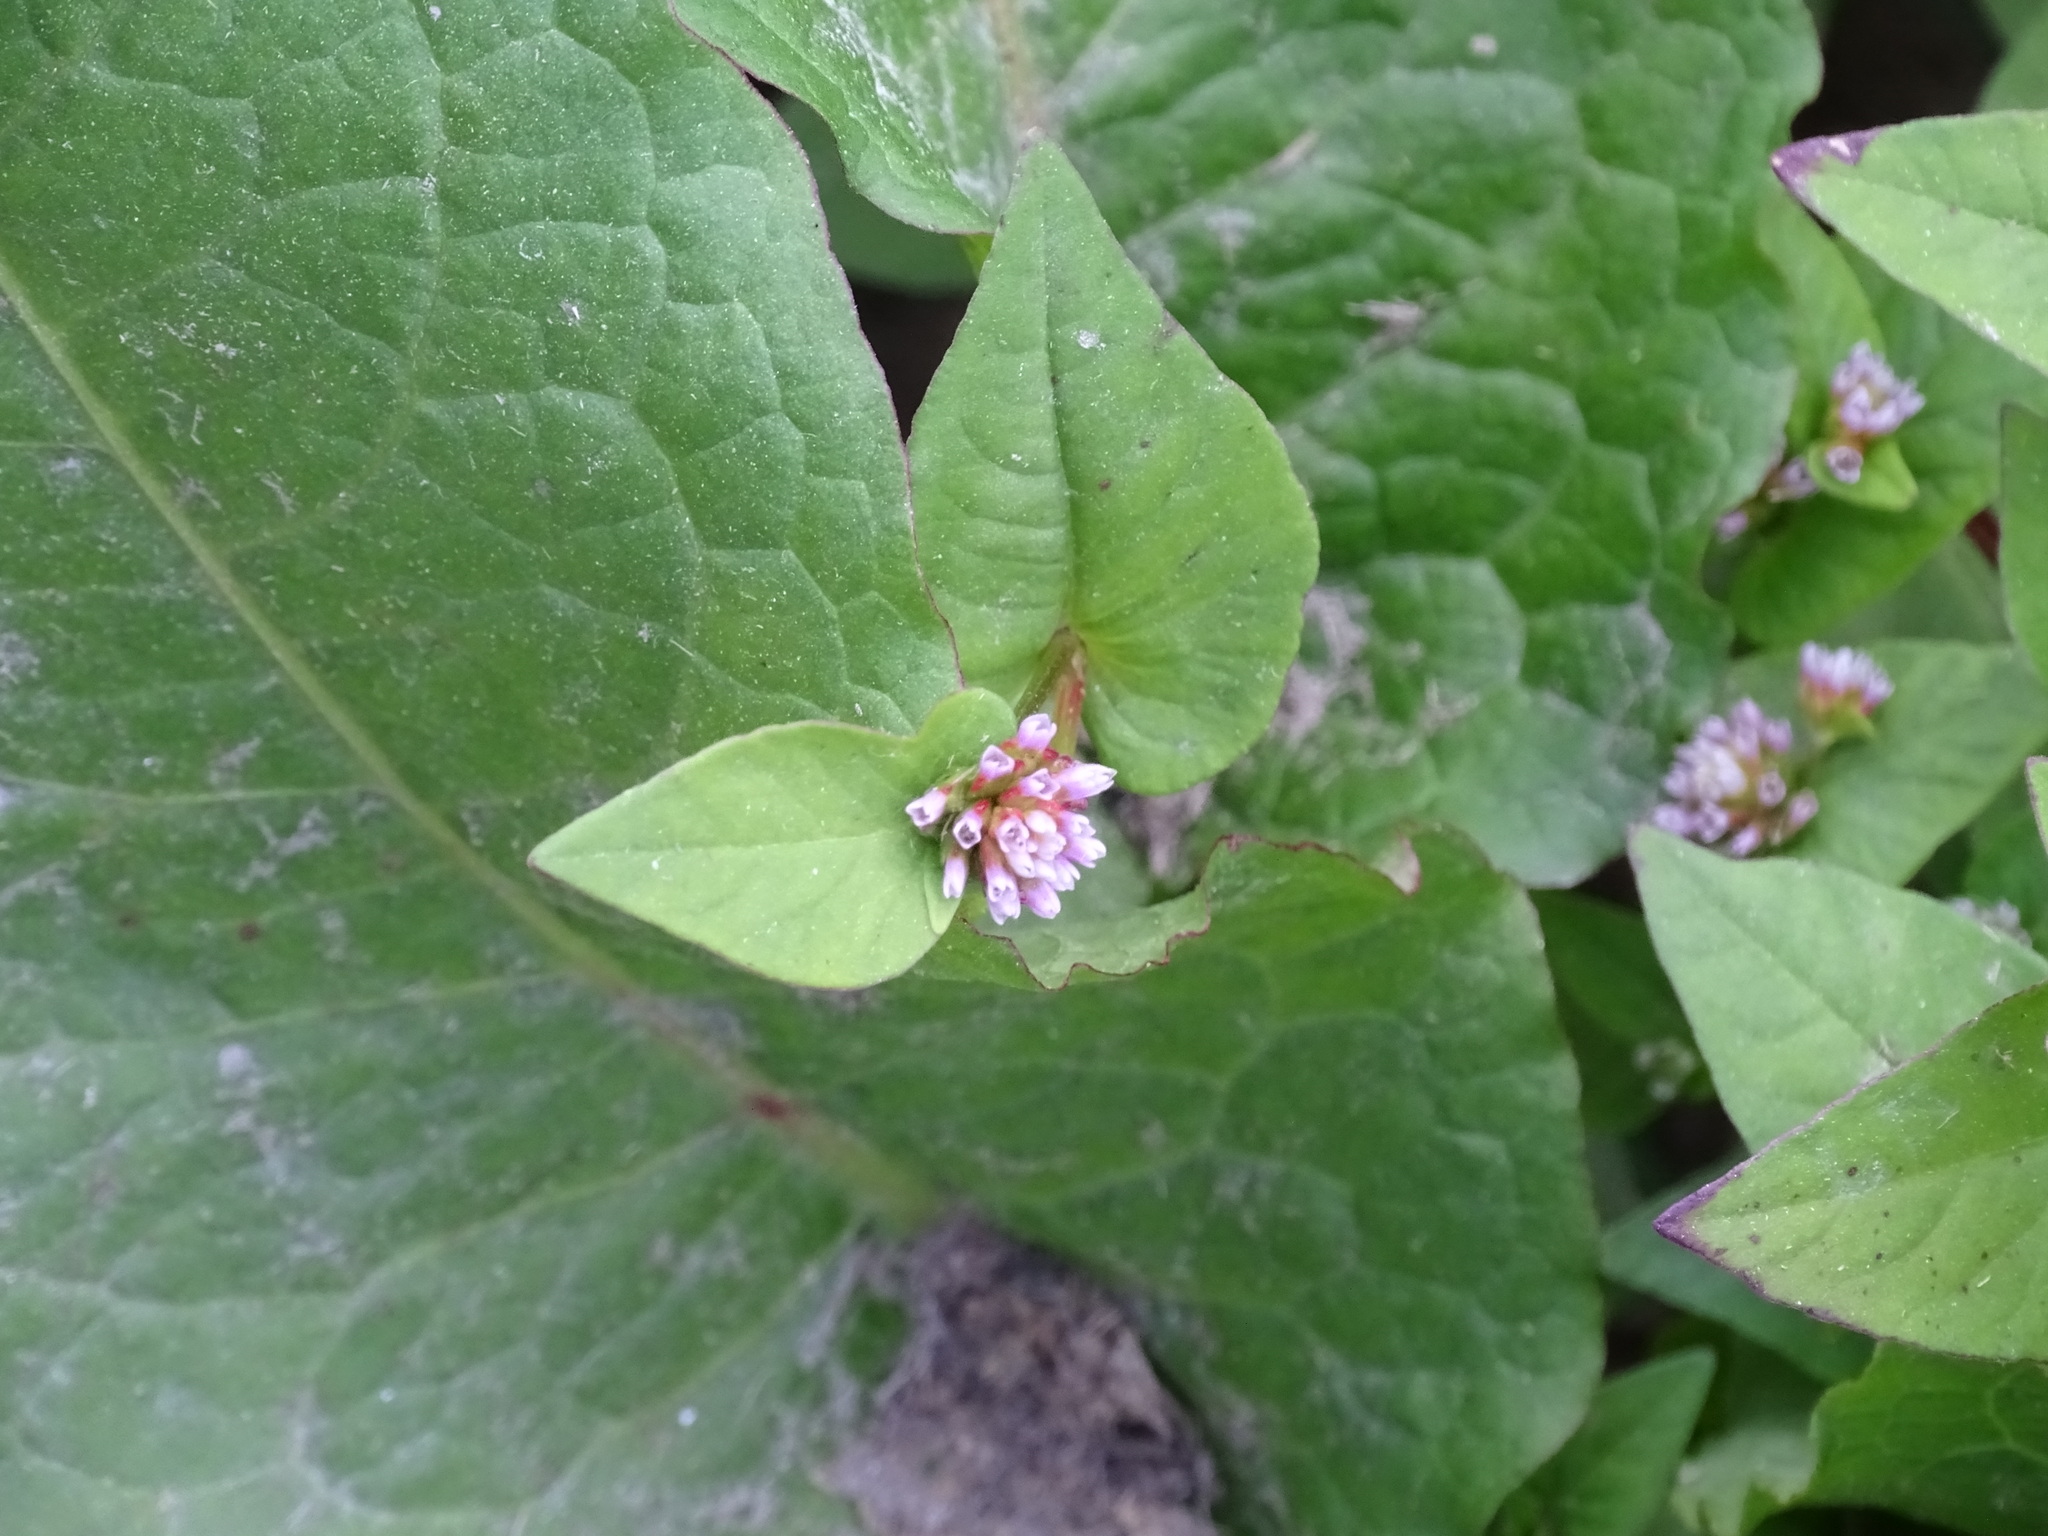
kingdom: Plantae
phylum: Tracheophyta
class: Magnoliopsida
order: Caryophyllales
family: Polygonaceae
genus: Persicaria
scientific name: Persicaria nepalensis
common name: Nepal persicaria
